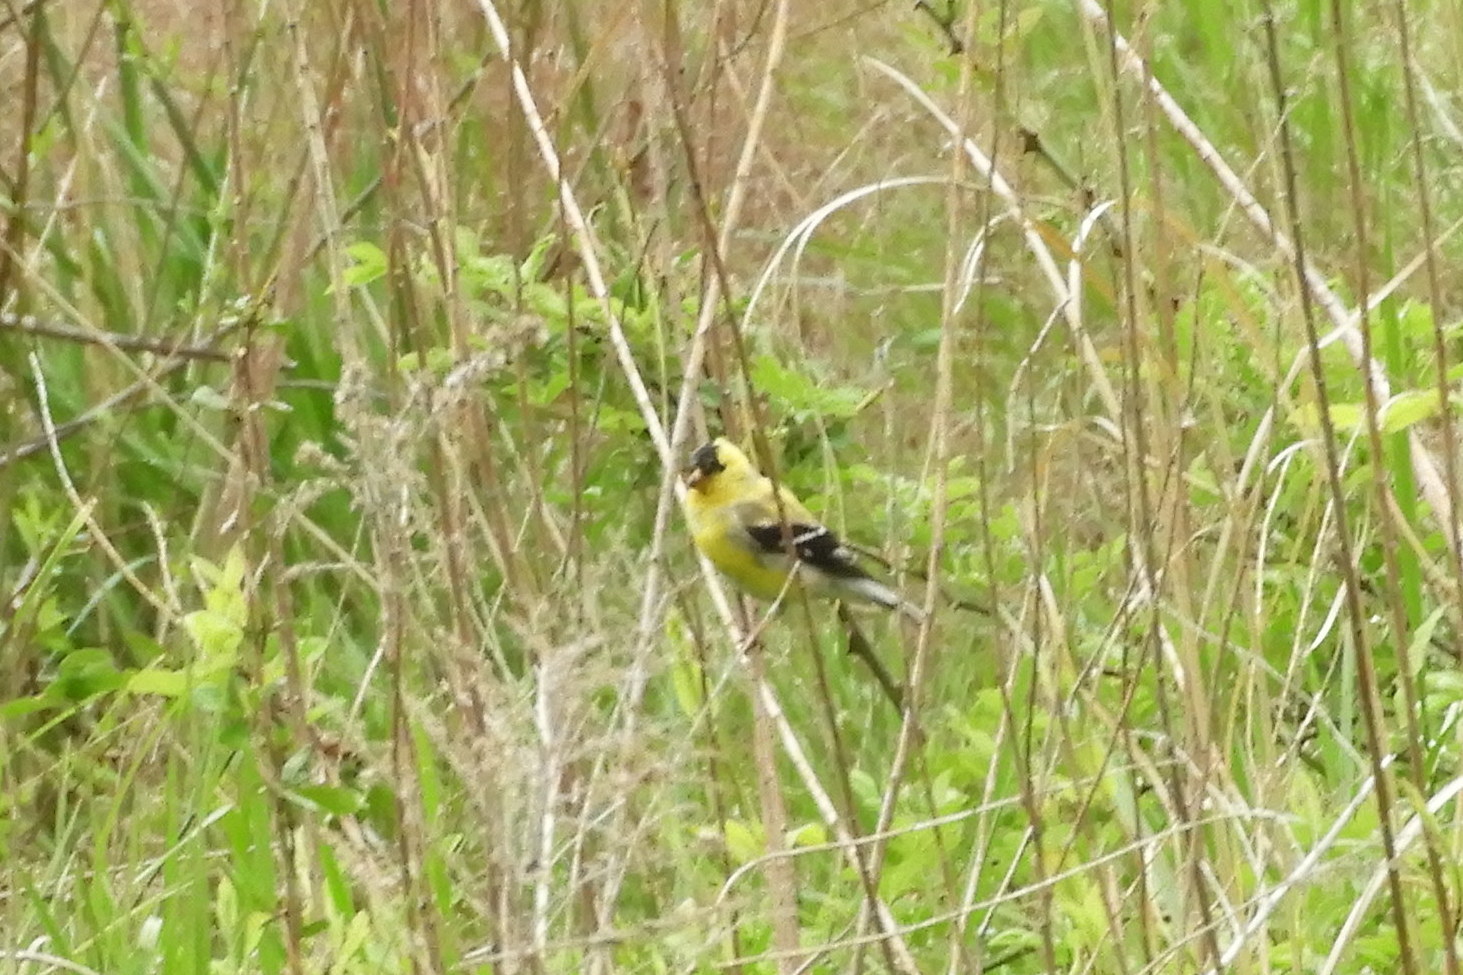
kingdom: Animalia
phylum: Chordata
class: Aves
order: Passeriformes
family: Fringillidae
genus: Spinus
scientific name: Spinus tristis
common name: American goldfinch
